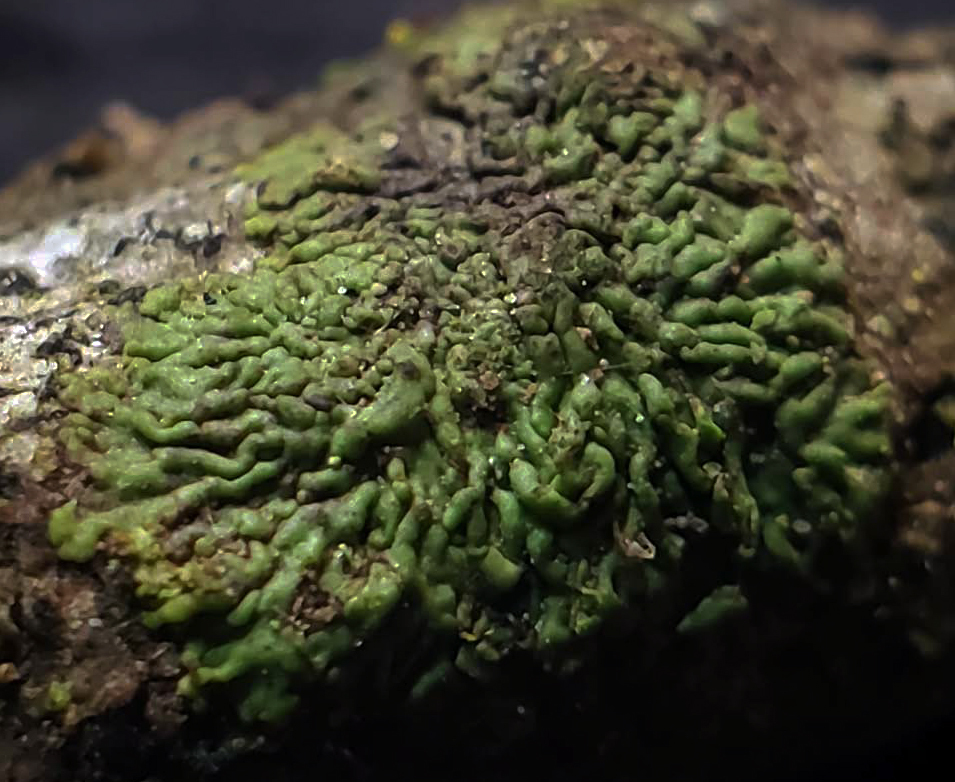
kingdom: Fungi
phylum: Ascomycota
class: Lecanoromycetes
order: Caliciales
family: Physciaceae
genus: Hyperphyscia
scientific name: Hyperphyscia syncolla
